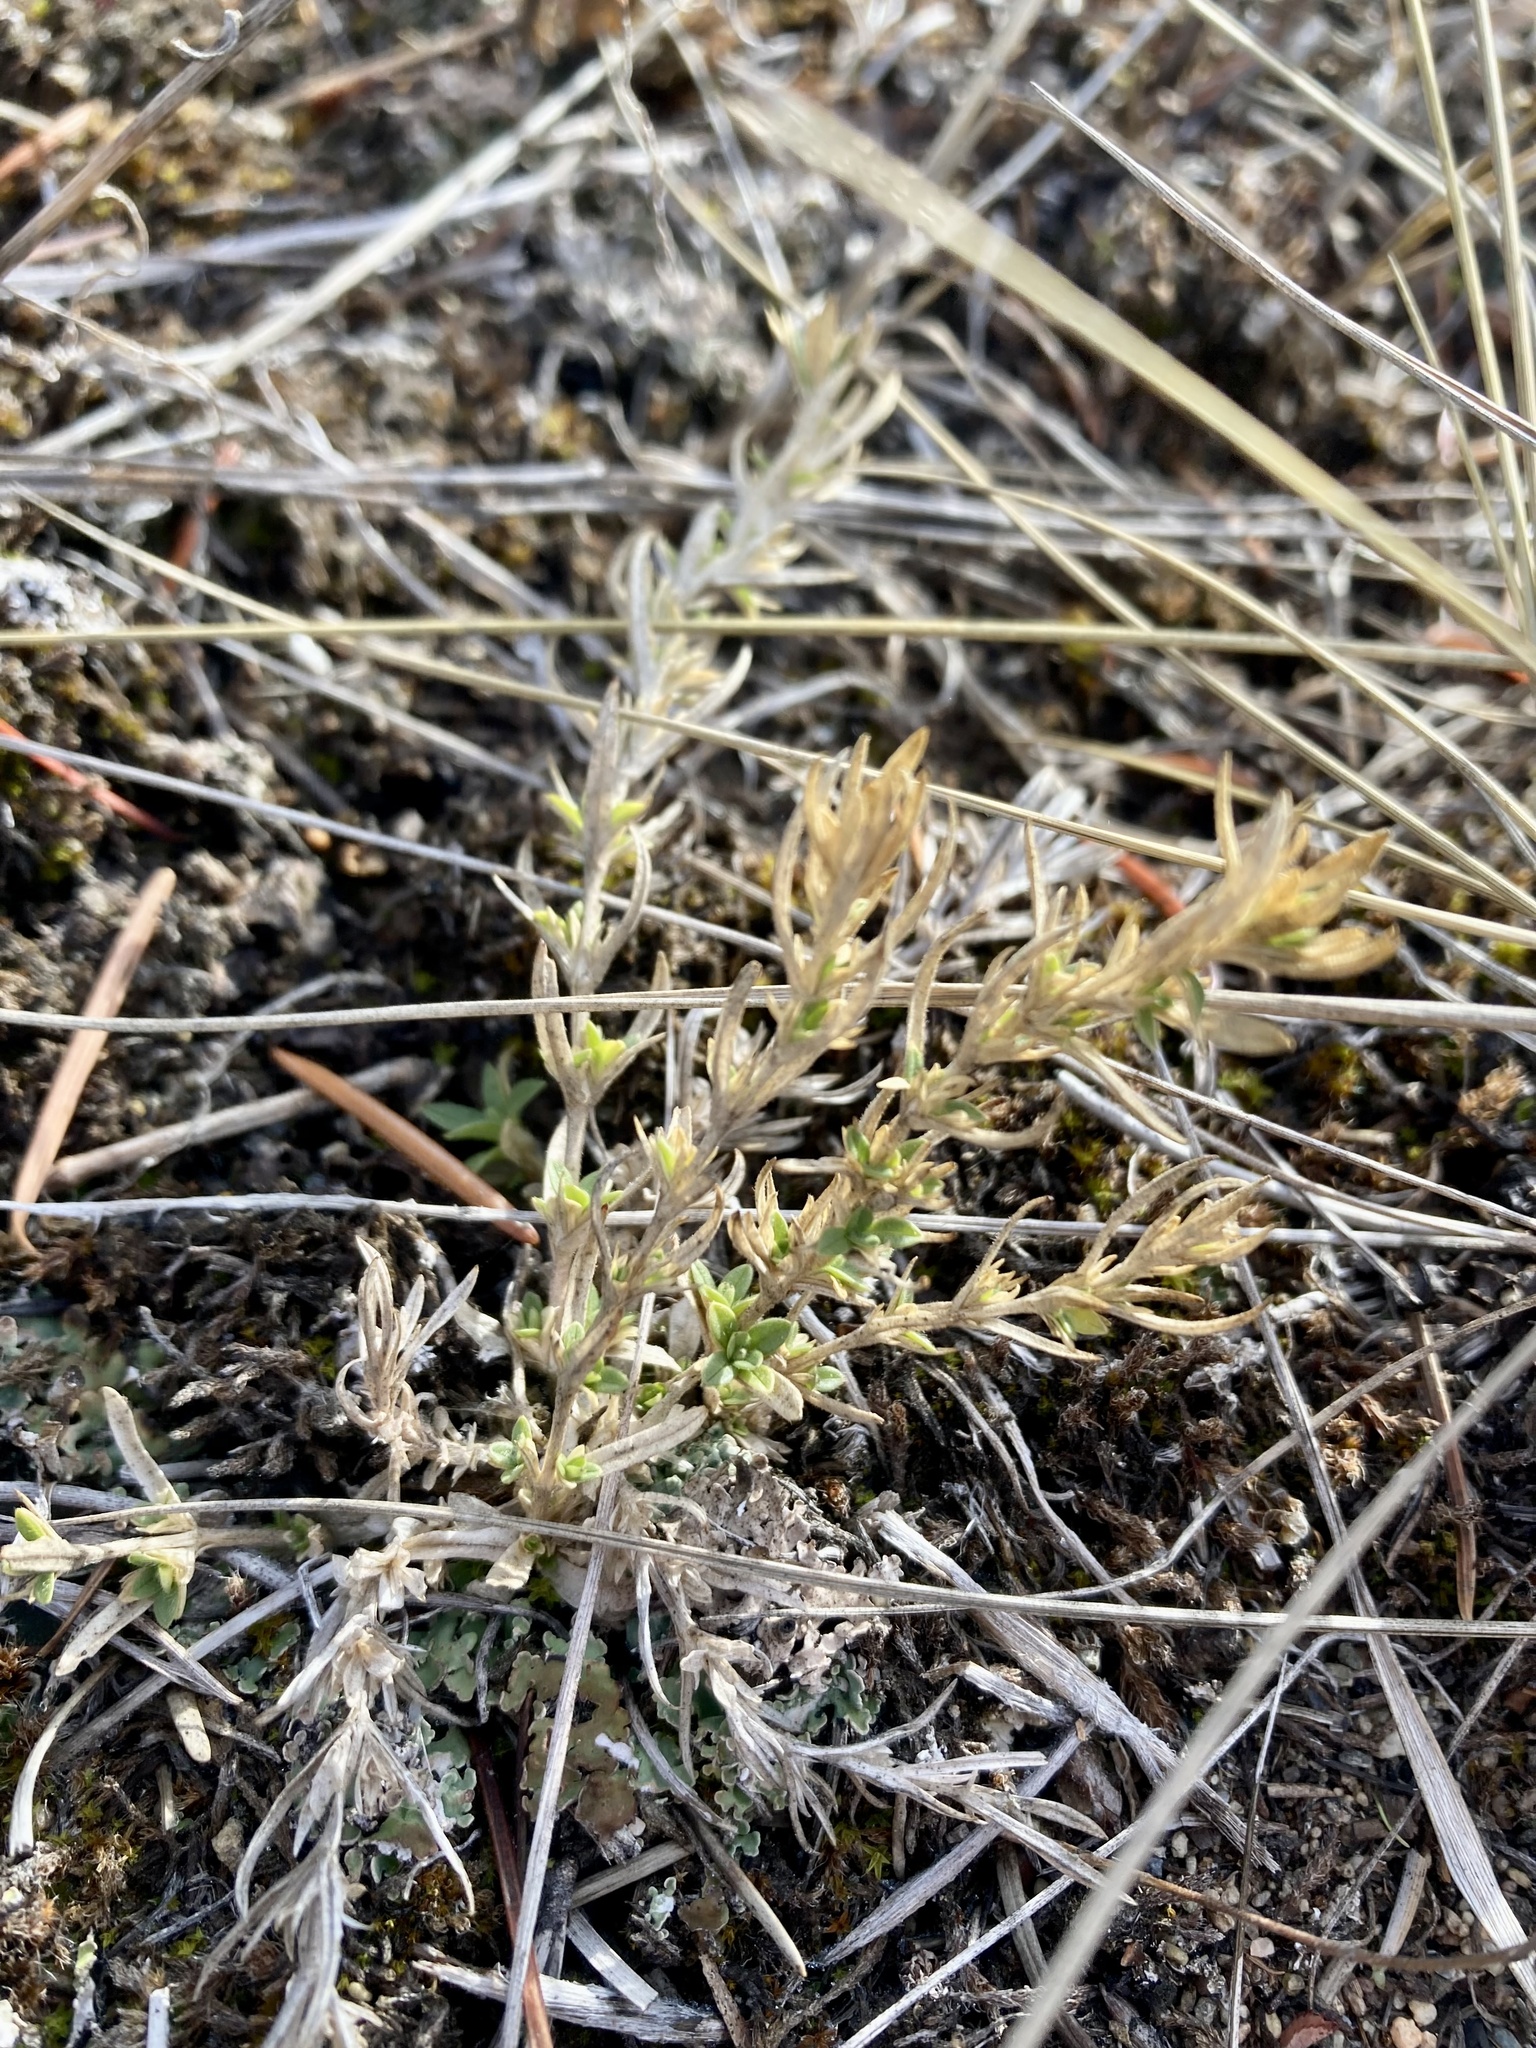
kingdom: Plantae
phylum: Tracheophyta
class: Magnoliopsida
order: Caryophyllales
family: Caryophyllaceae
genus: Cerastium
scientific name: Cerastium arvense
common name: Field mouse-ear
